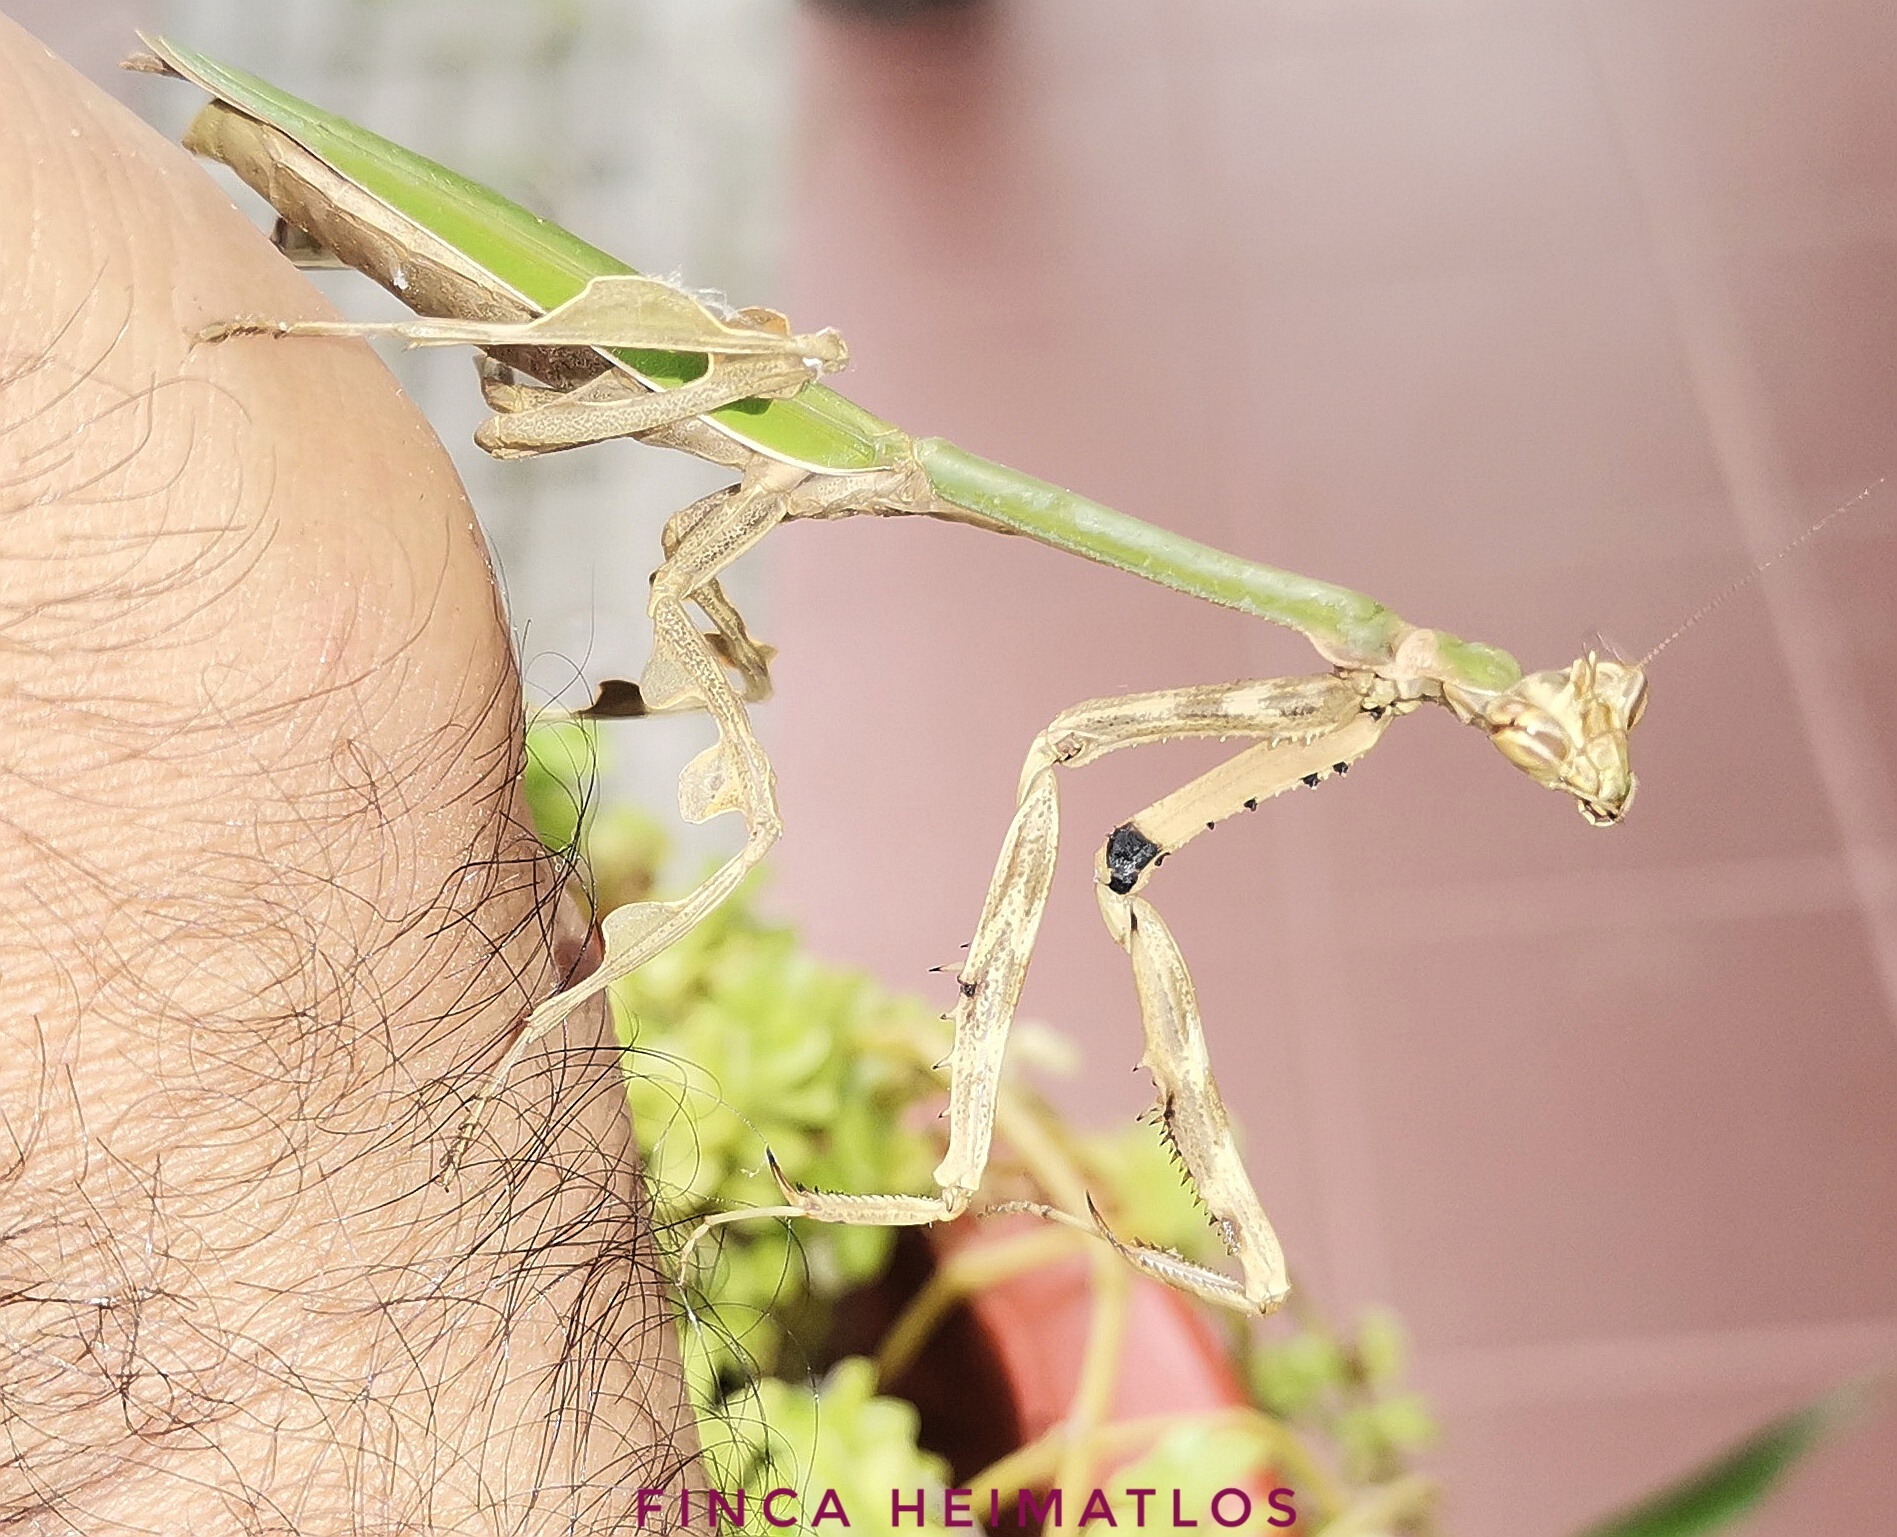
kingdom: Animalia
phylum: Arthropoda
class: Insecta
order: Mantodea
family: Mantidae
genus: Vates
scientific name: Vates weyrauchi
